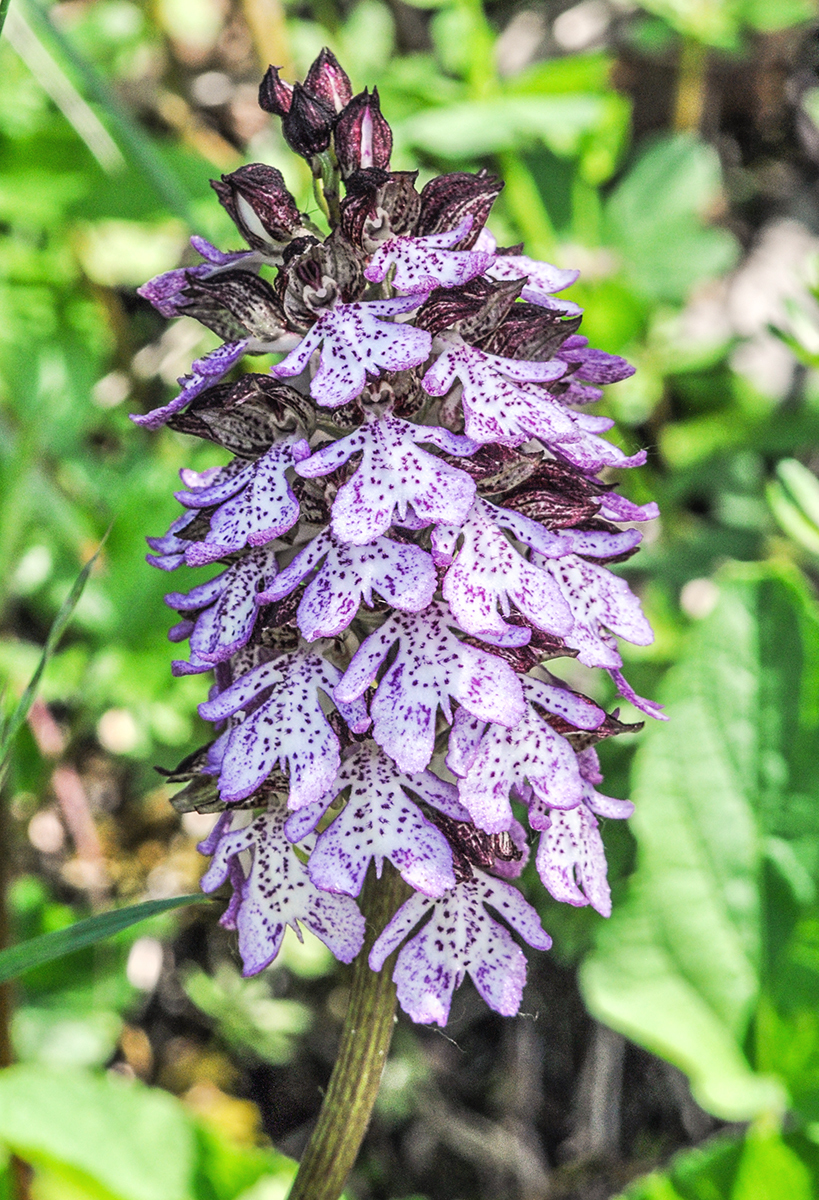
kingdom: Plantae
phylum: Tracheophyta
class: Liliopsida
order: Asparagales
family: Orchidaceae
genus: Orchis
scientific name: Orchis purpurea
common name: Lady orchid
